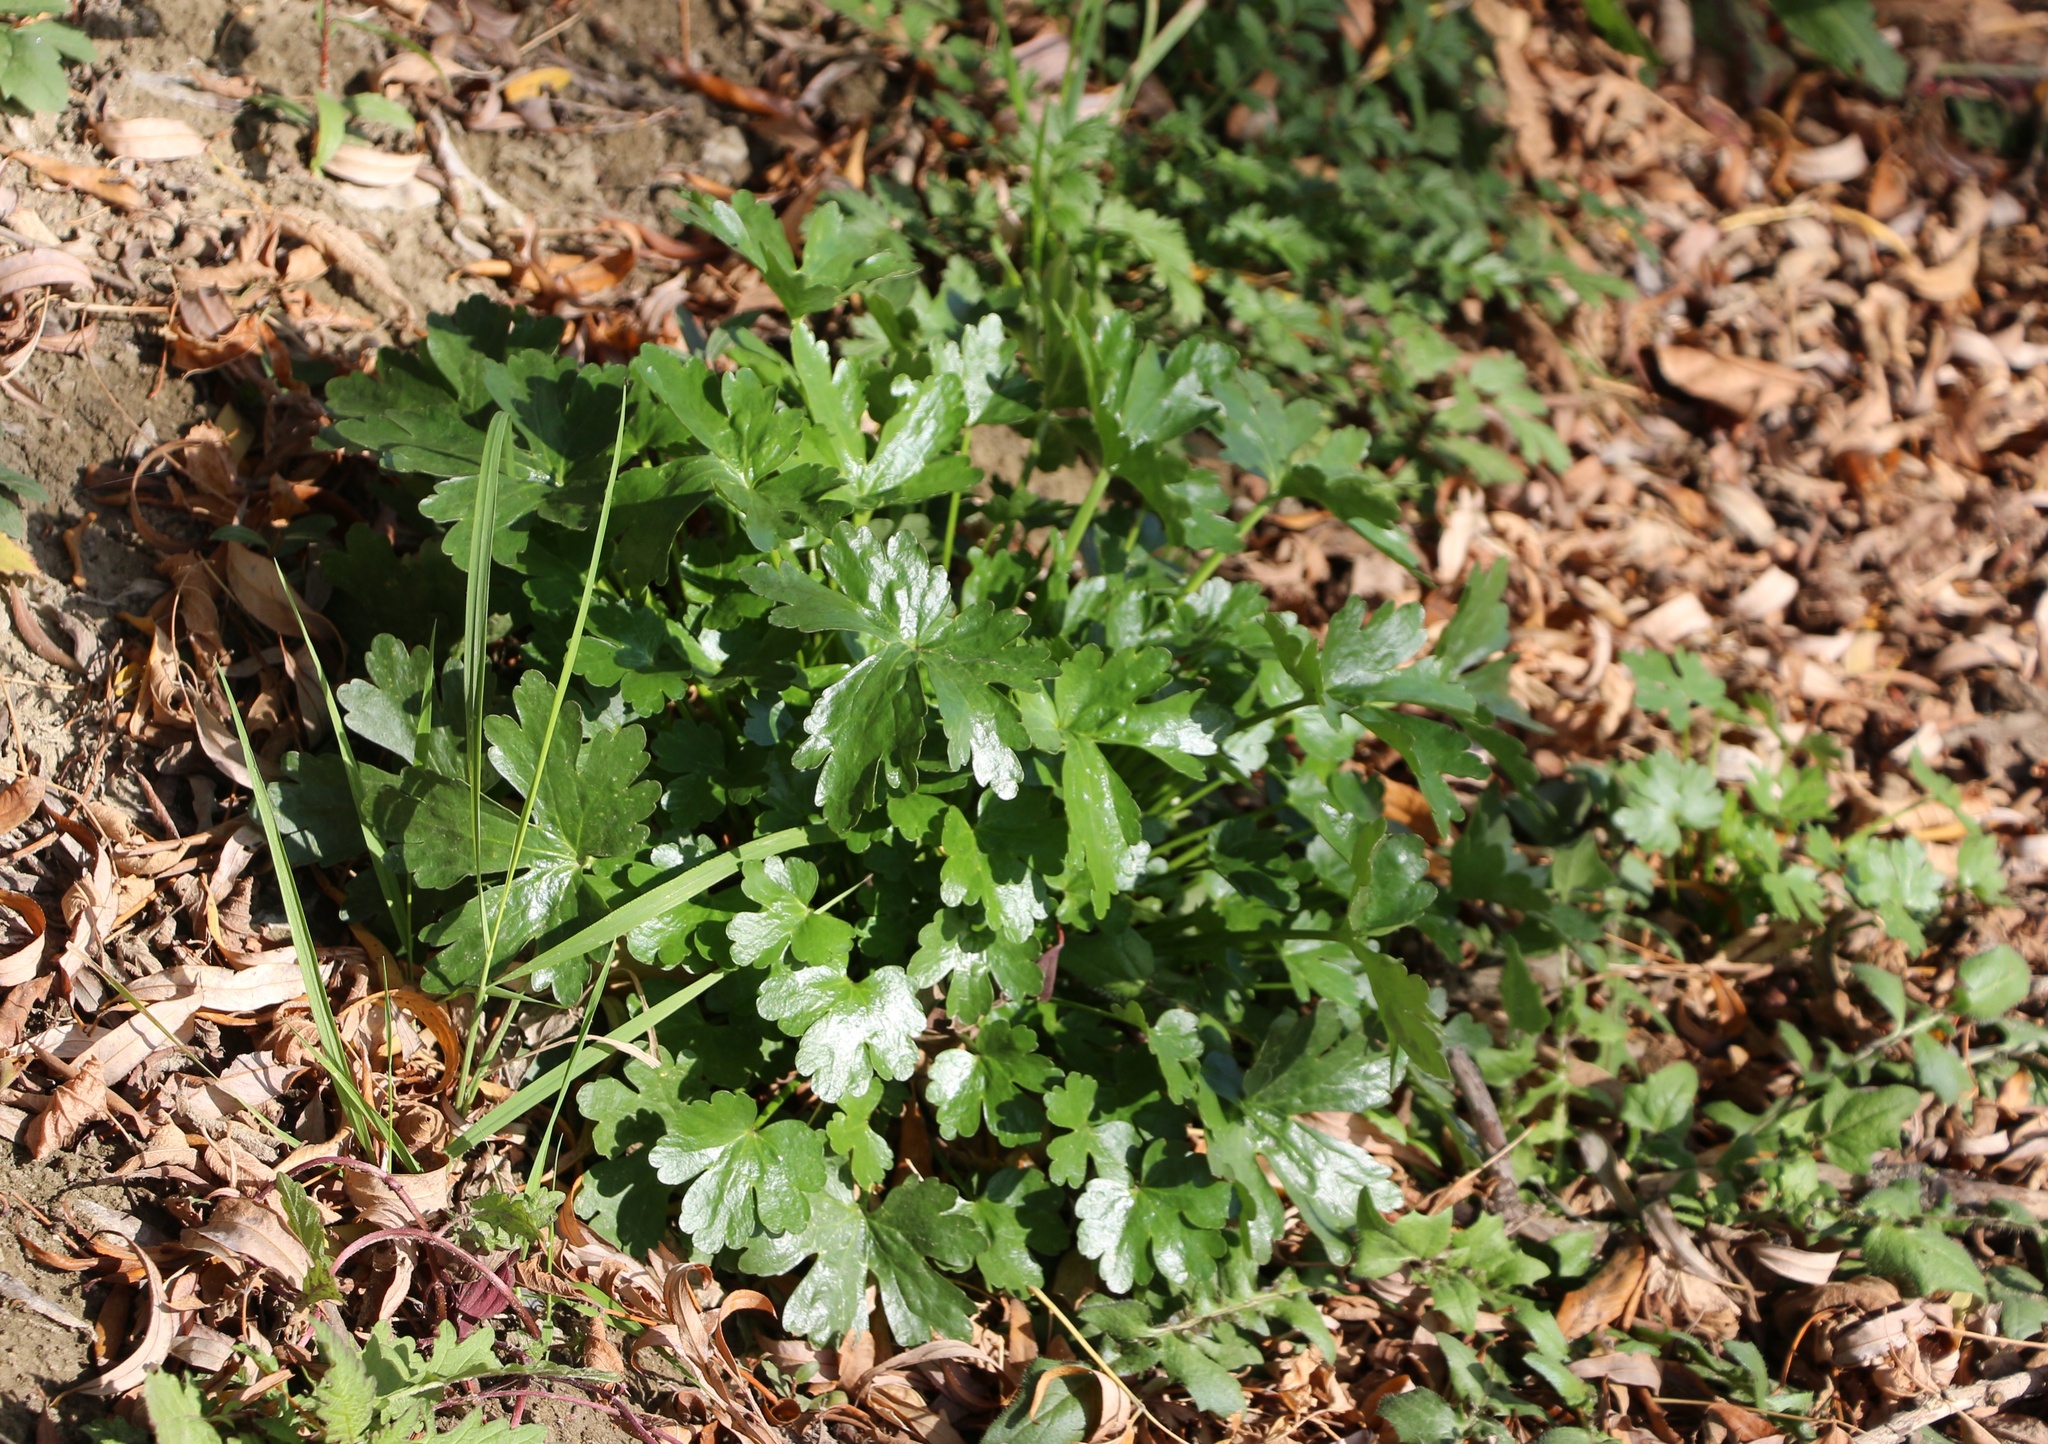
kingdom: Plantae
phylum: Tracheophyta
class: Magnoliopsida
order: Ranunculales
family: Ranunculaceae
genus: Ranunculus
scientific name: Ranunculus sceleratus
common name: Celery-leaved buttercup
